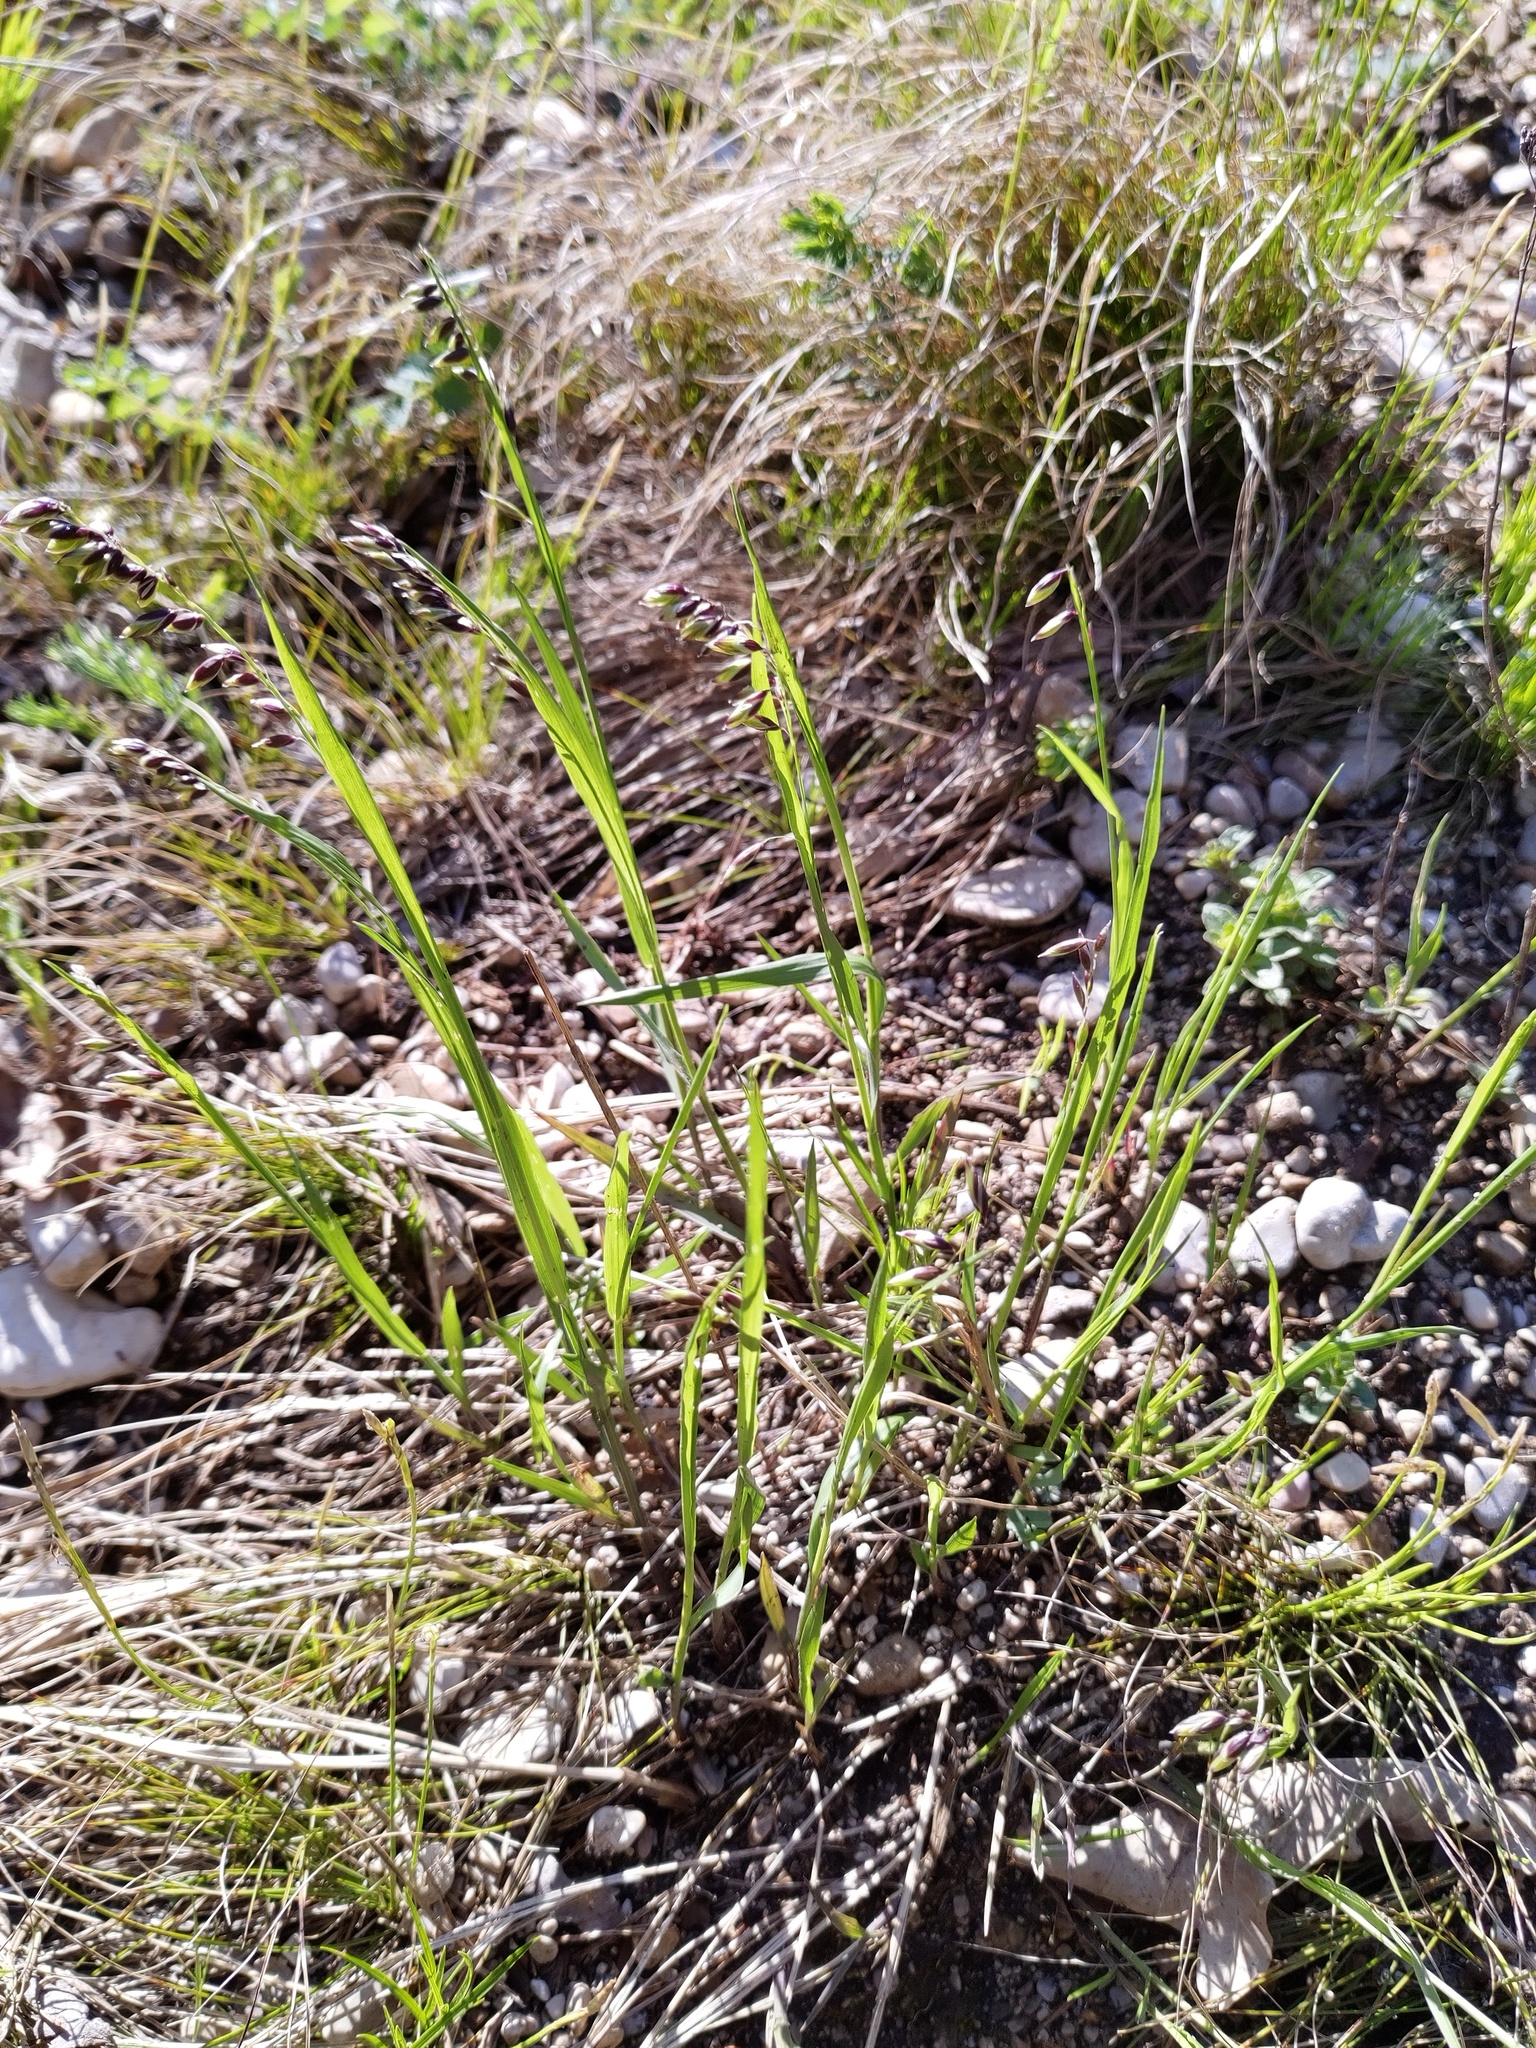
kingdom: Plantae
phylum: Tracheophyta
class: Liliopsida
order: Poales
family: Poaceae
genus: Melica
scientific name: Melica nutans
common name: Mountain melick
